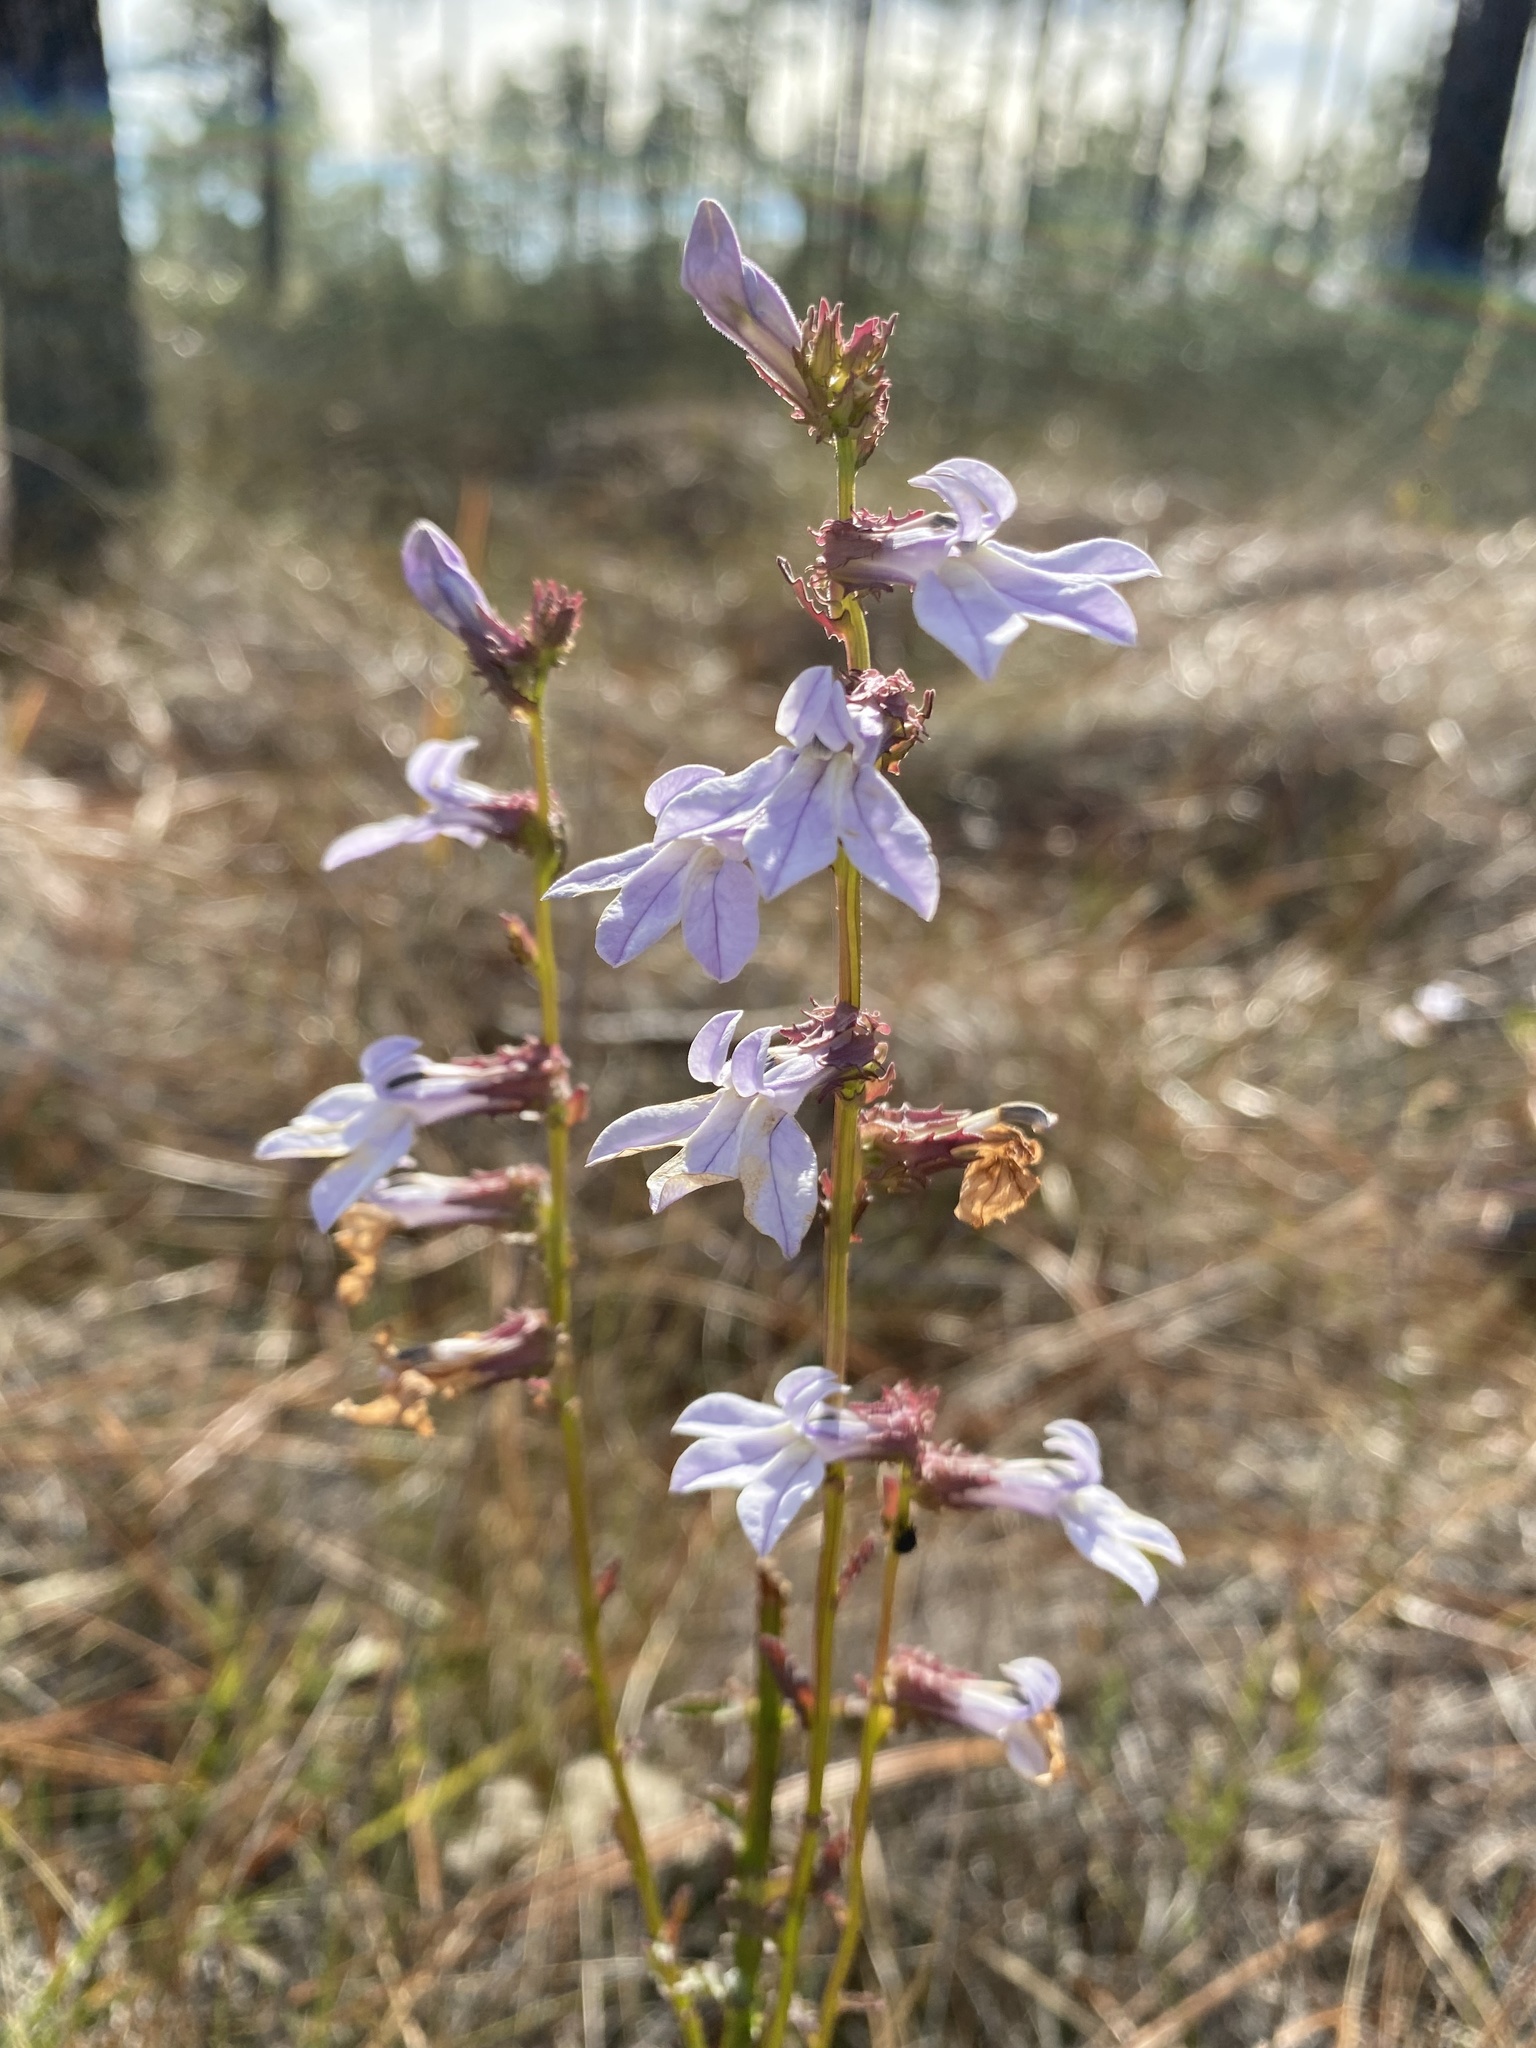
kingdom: Plantae
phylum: Tracheophyta
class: Magnoliopsida
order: Asterales
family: Campanulaceae
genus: Lobelia
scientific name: Lobelia brevifolia
